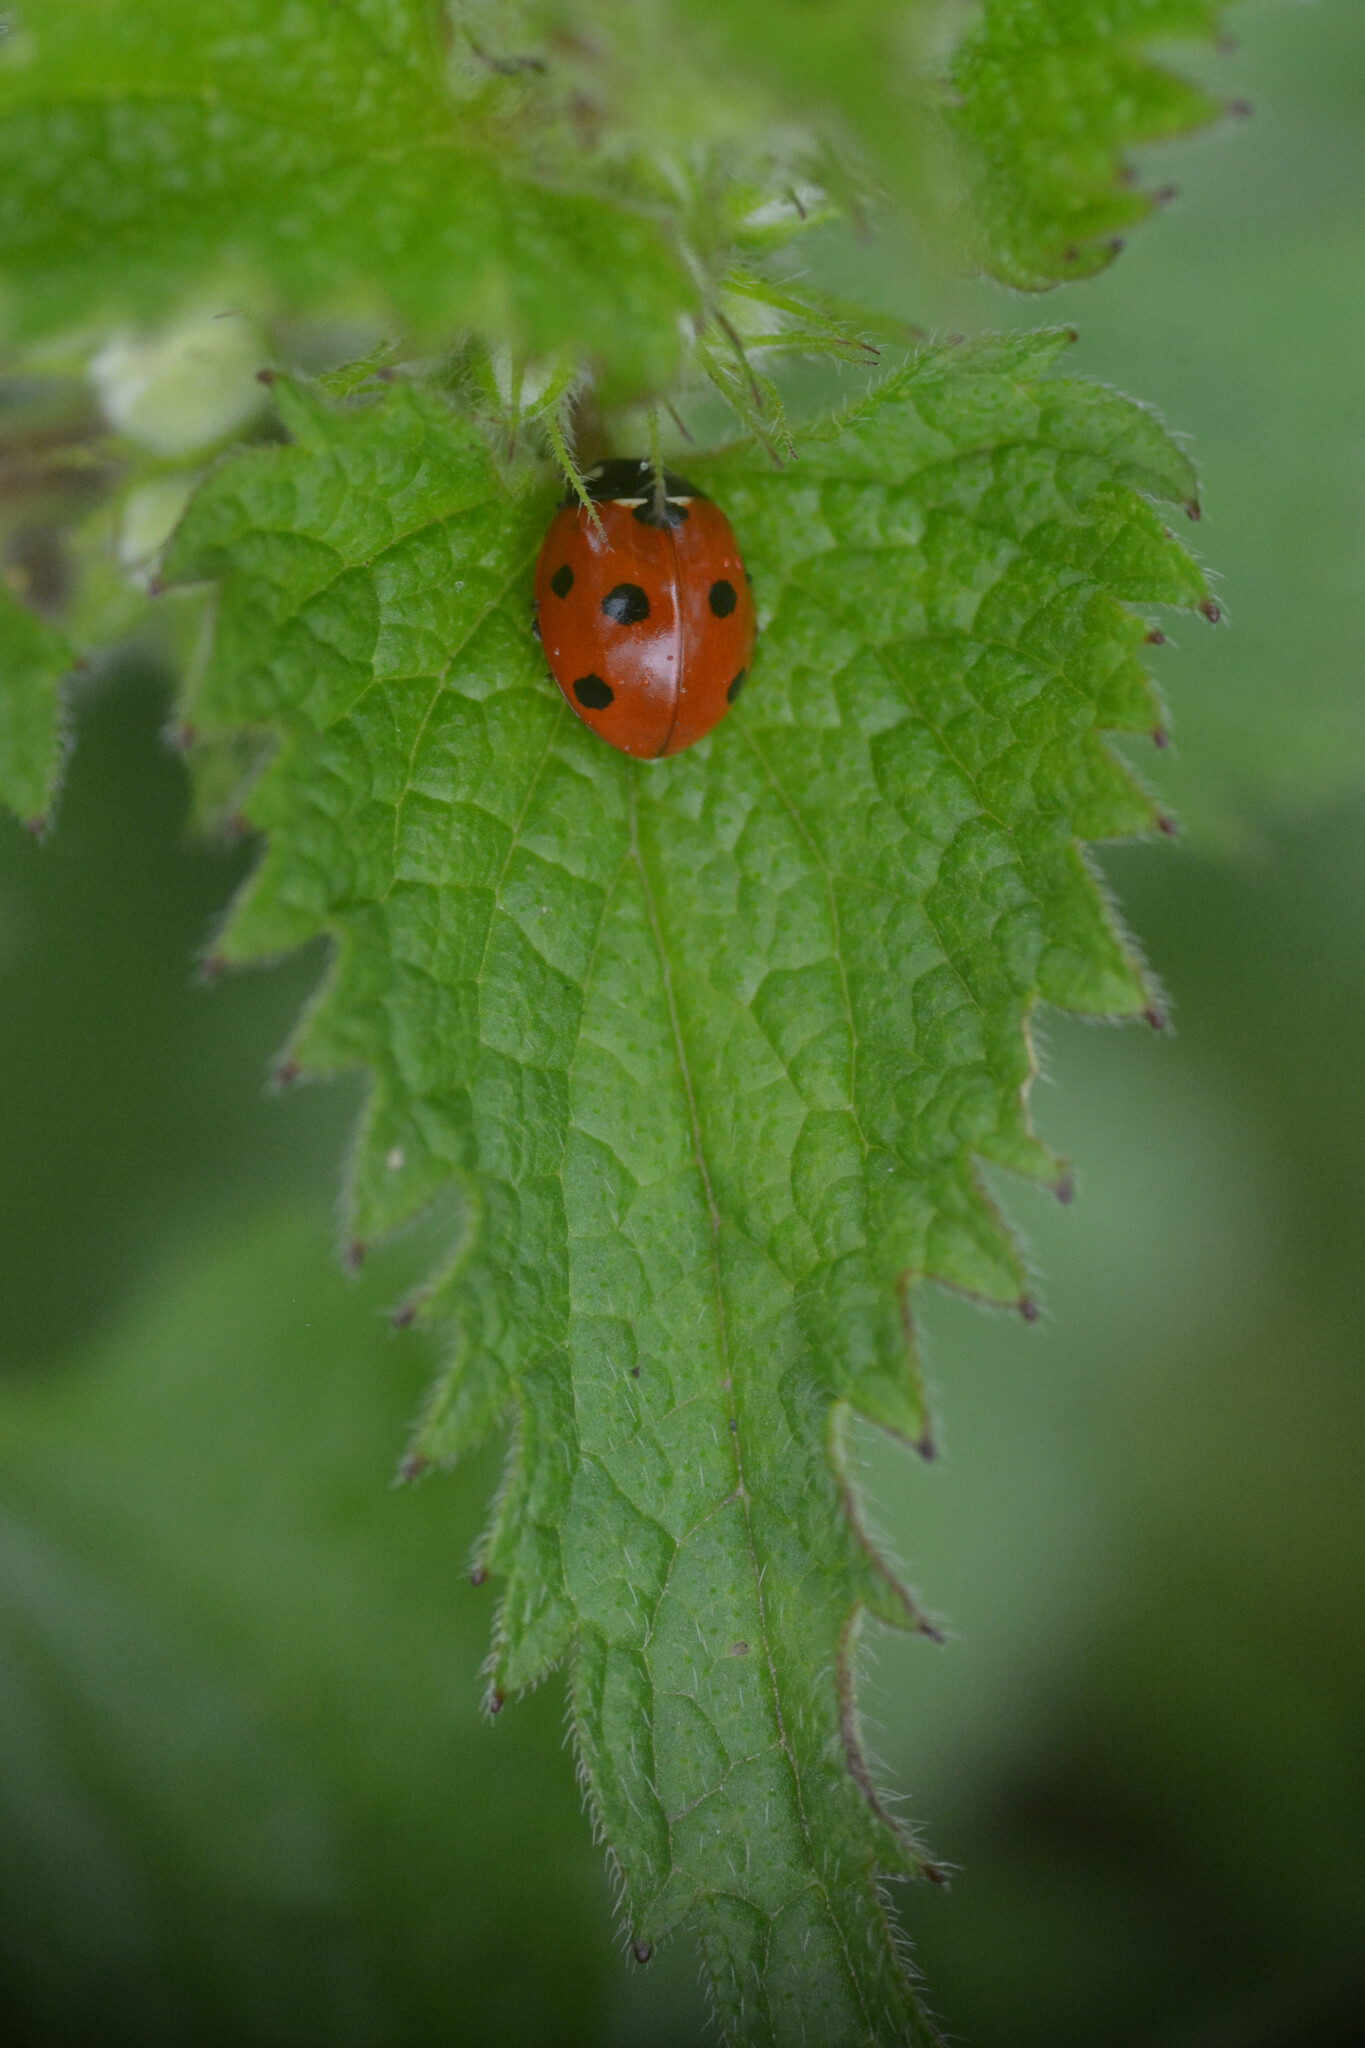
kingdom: Animalia
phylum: Arthropoda
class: Insecta
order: Coleoptera
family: Coccinellidae
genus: Coccinella
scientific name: Coccinella septempunctata
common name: Sevenspotted lady beetle
